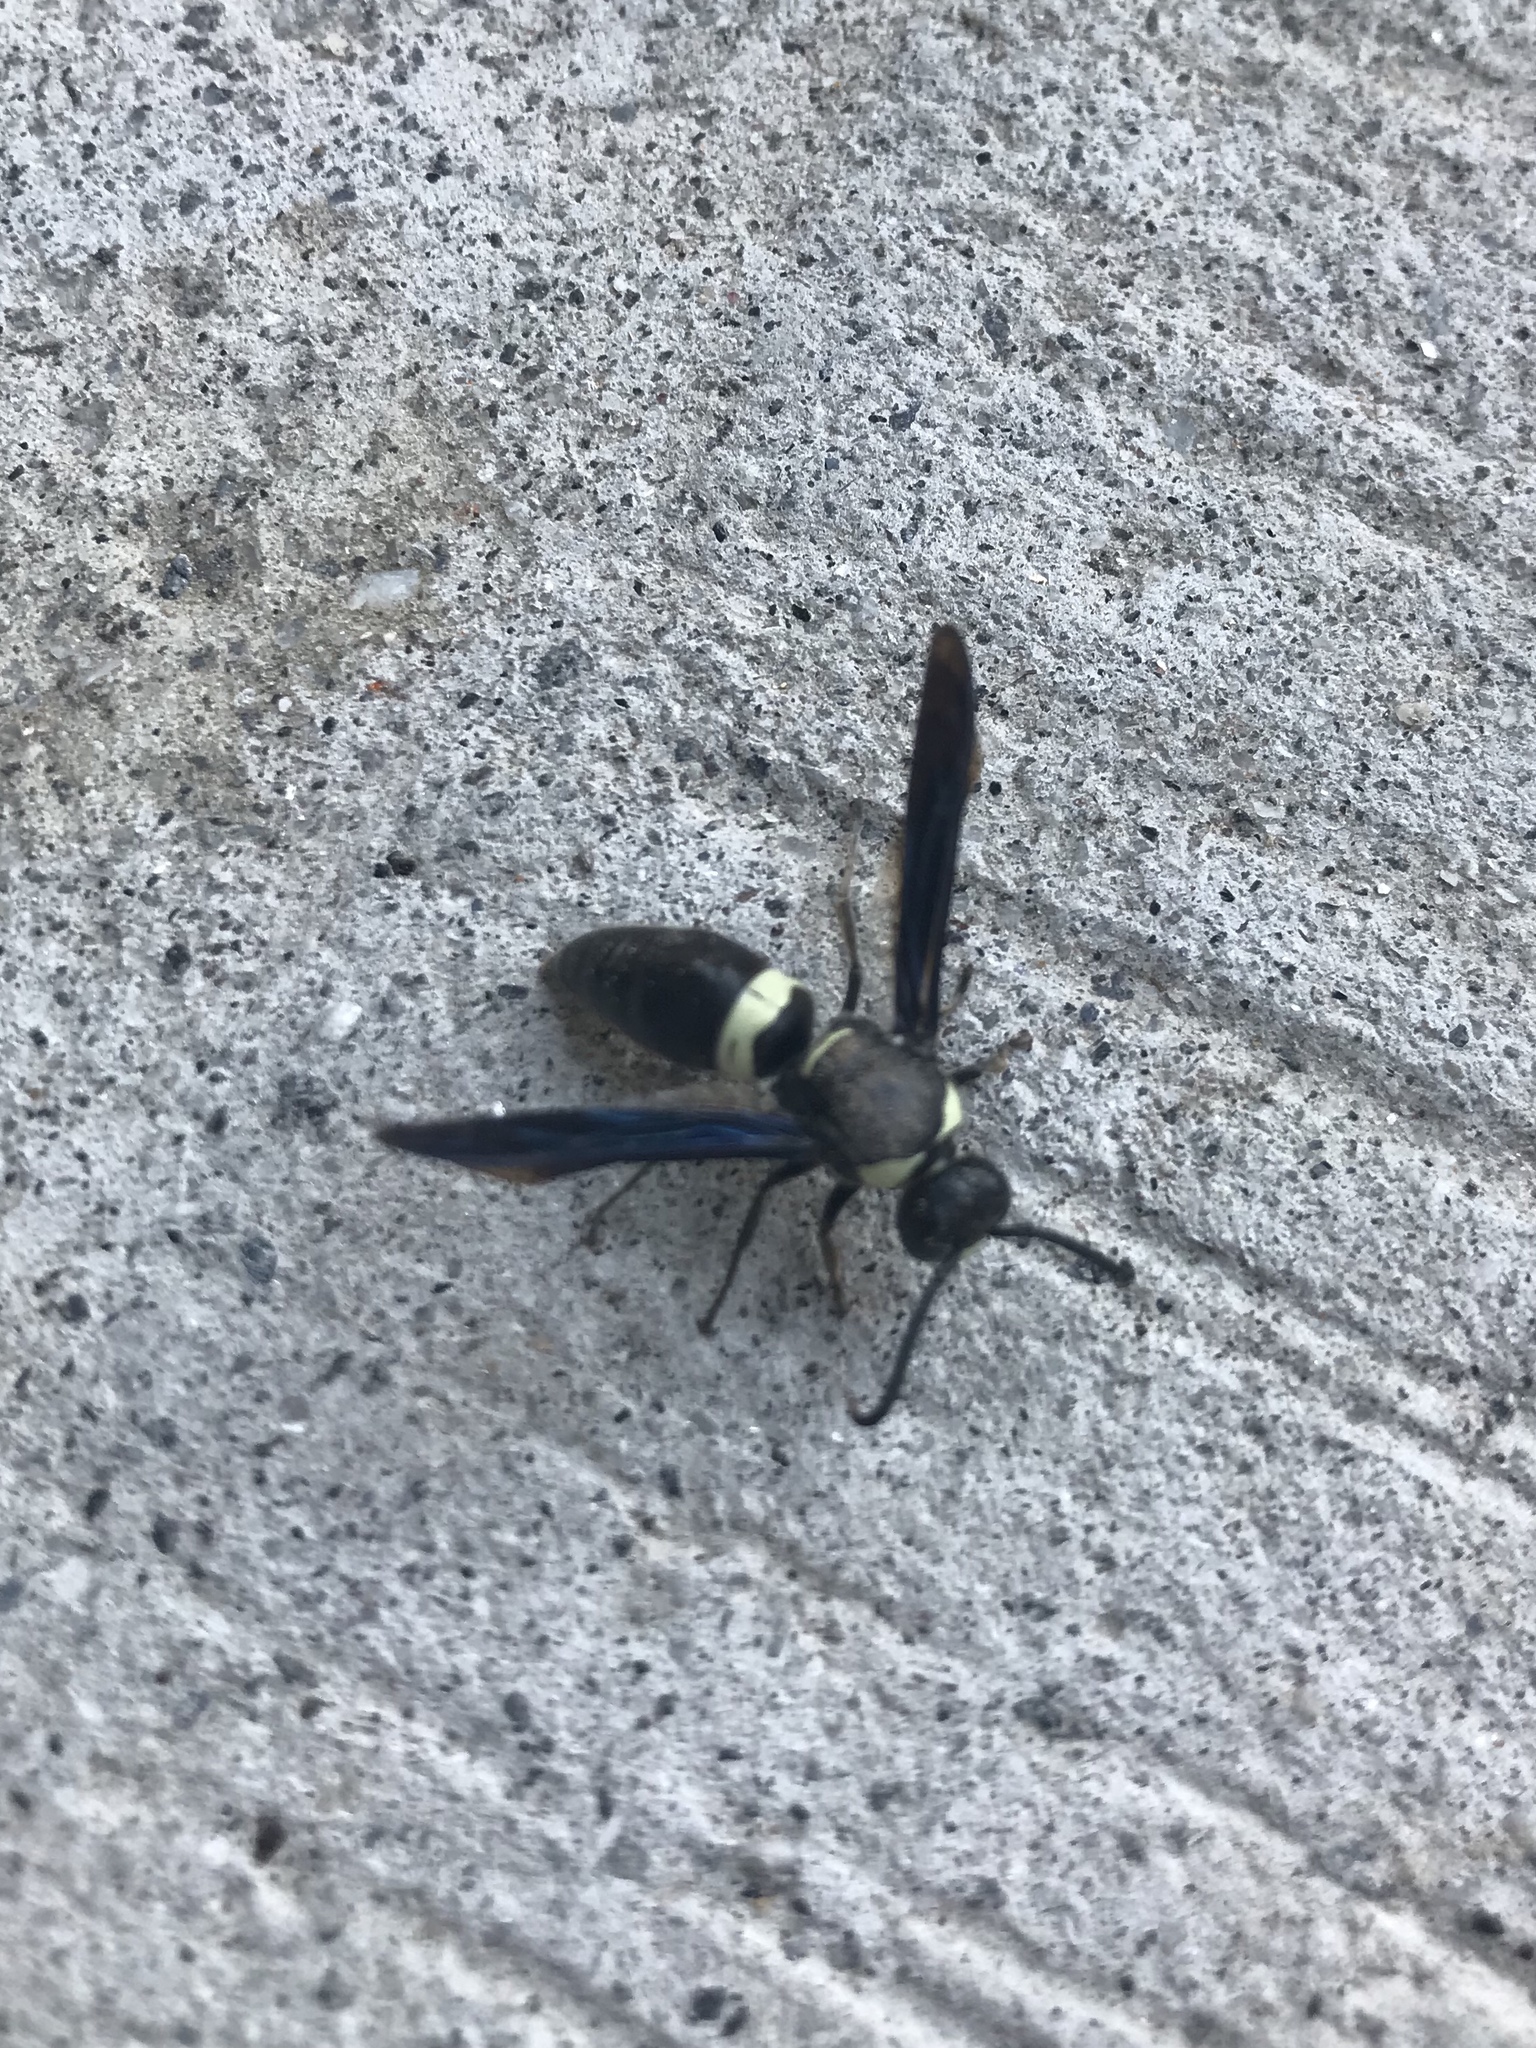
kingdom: Animalia
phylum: Arthropoda
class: Insecta
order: Hymenoptera
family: Eumenidae
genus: Monobia
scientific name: Monobia quadridens
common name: Four-toothed mason wasp
